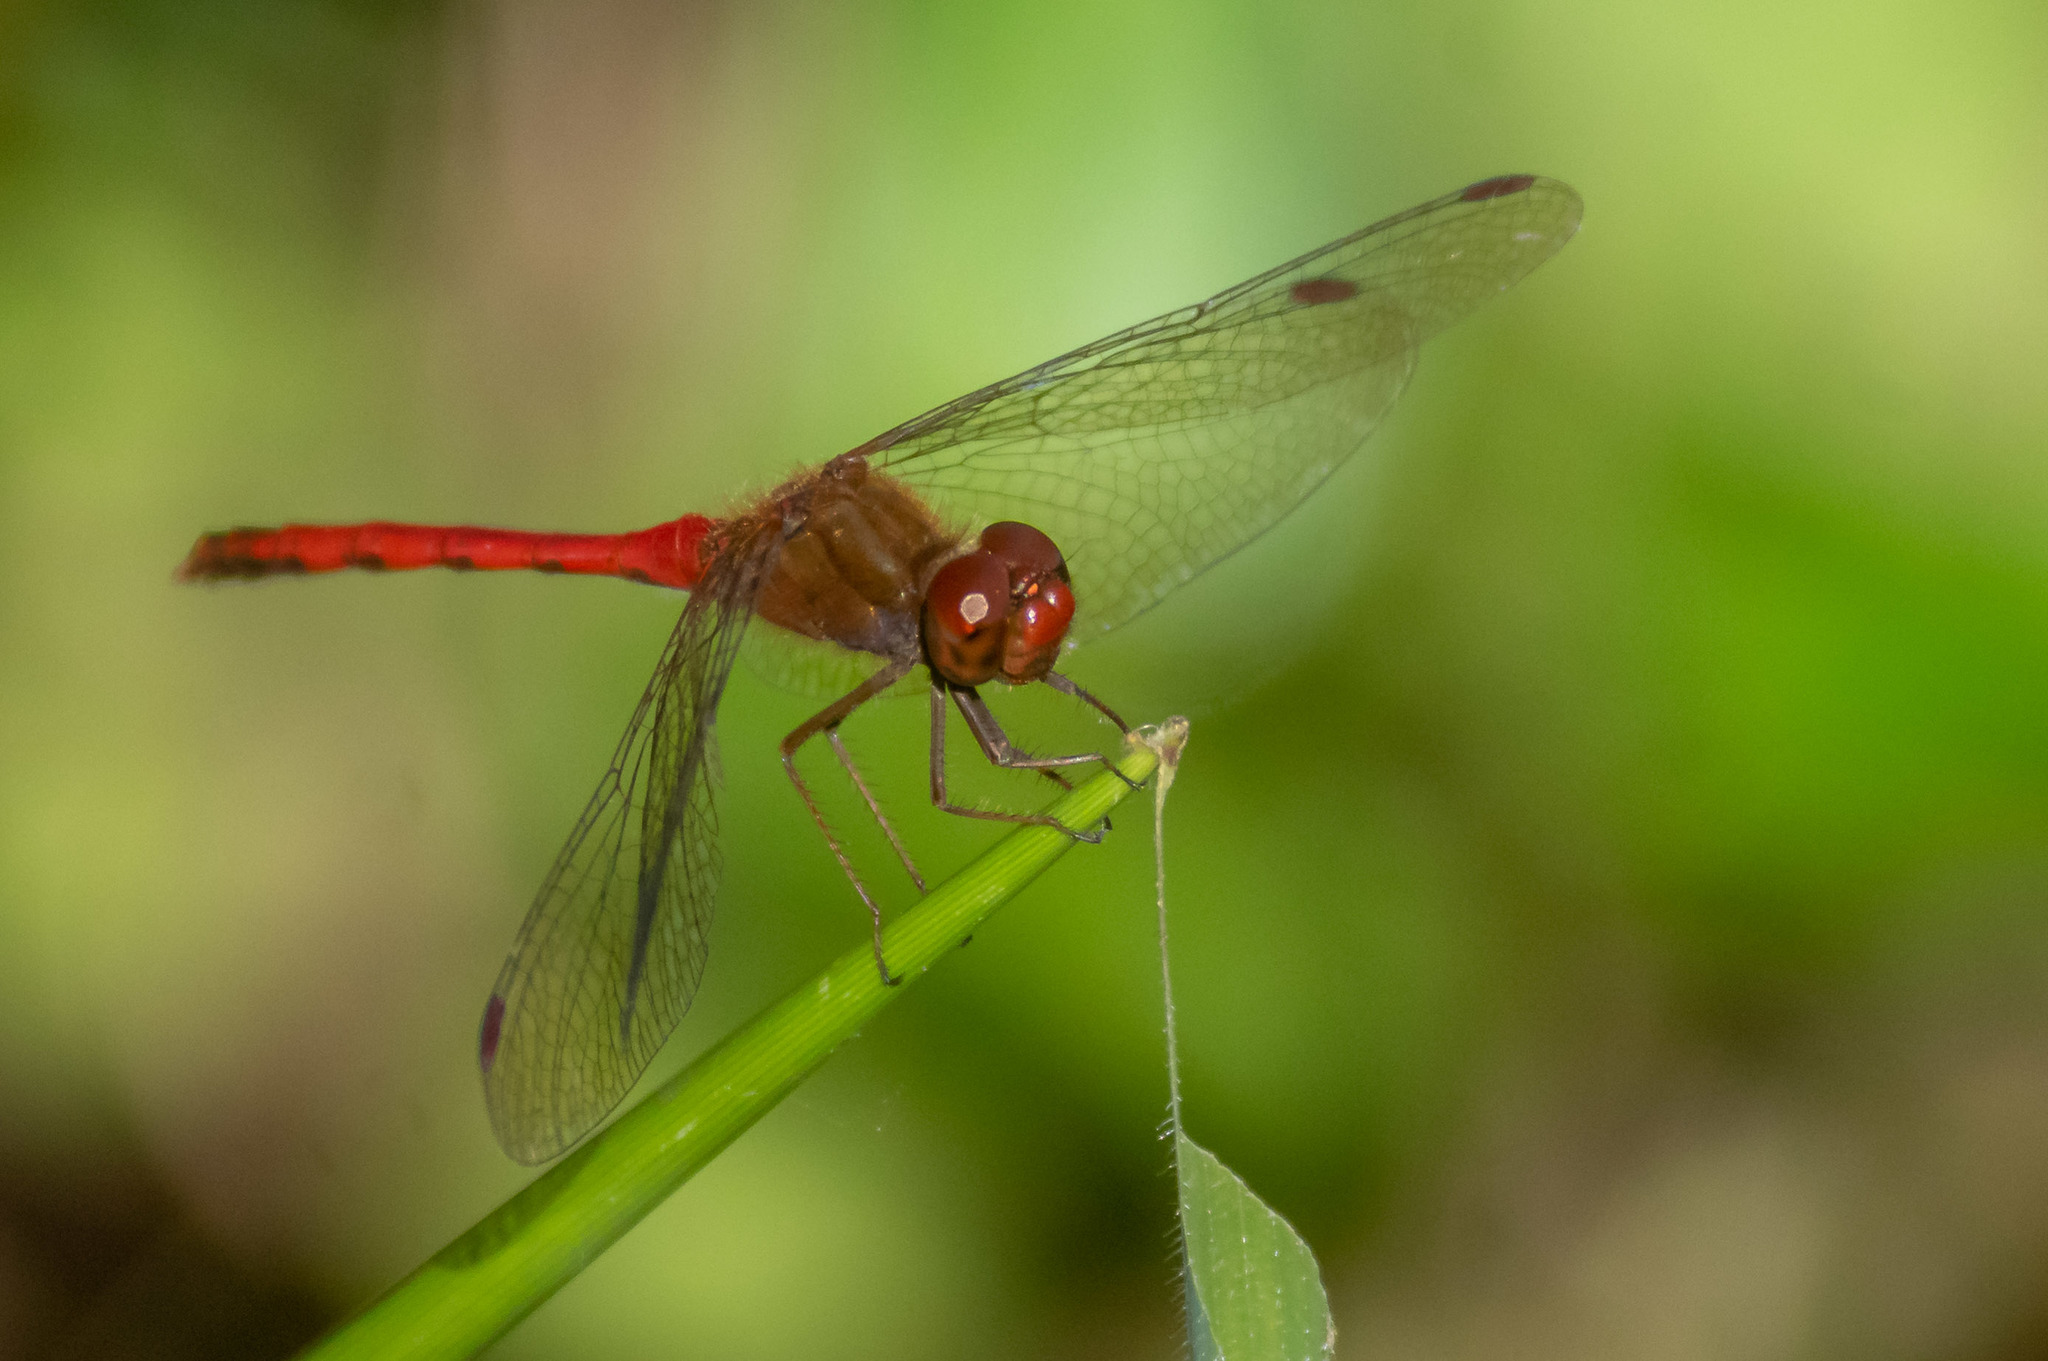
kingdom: Animalia
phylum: Arthropoda
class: Insecta
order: Odonata
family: Libellulidae
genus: Sympetrum
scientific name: Sympetrum vicinum
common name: Autumn meadowhawk
